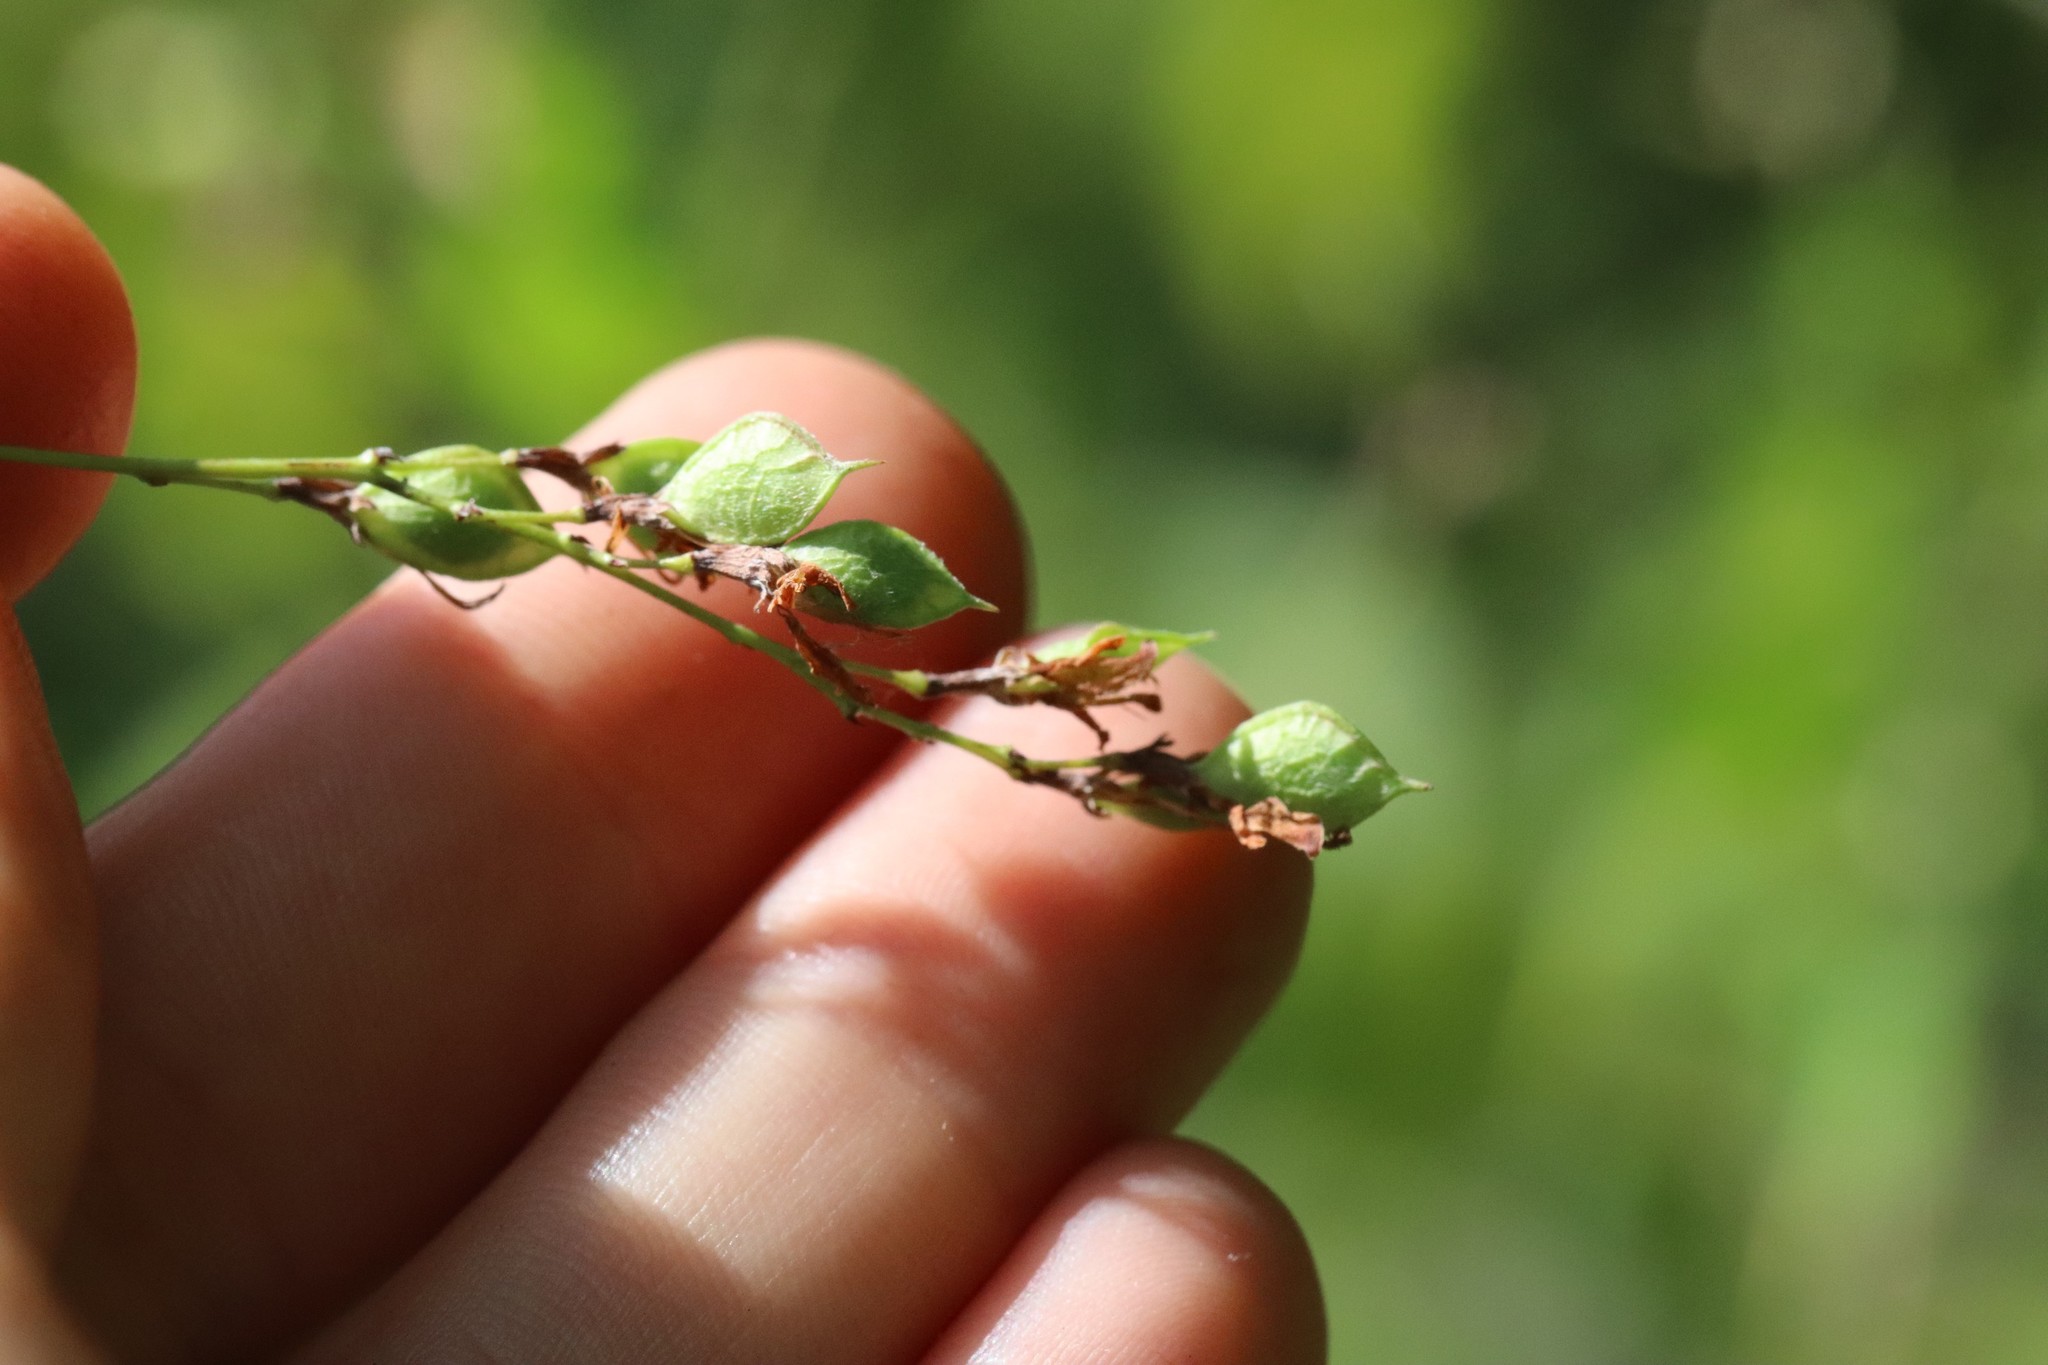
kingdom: Plantae
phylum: Tracheophyta
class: Magnoliopsida
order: Fabales
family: Fabaceae
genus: Lespedeza
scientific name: Lespedeza bicolor
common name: Shrub lespedeza
